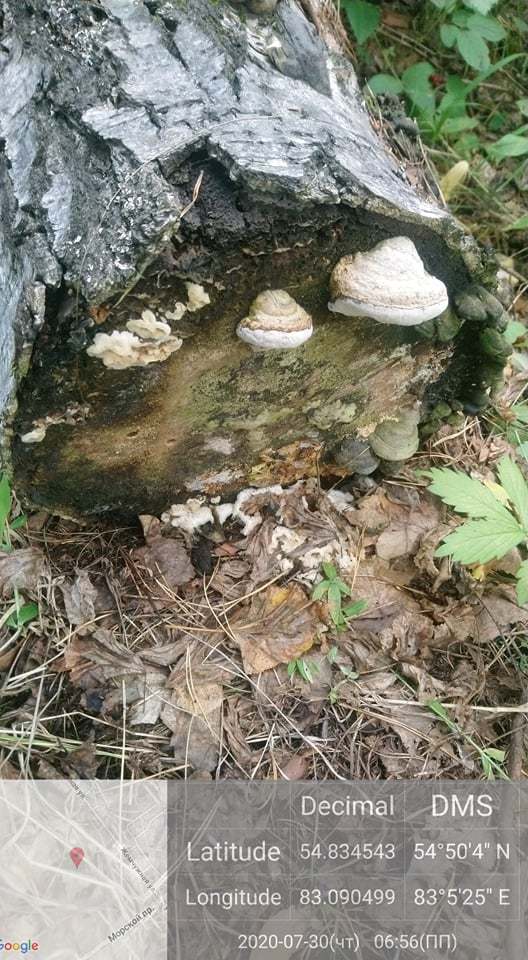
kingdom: Fungi
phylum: Basidiomycota
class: Agaricomycetes
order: Polyporales
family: Polyporaceae
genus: Fomes
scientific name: Fomes fomentarius
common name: Hoof fungus
